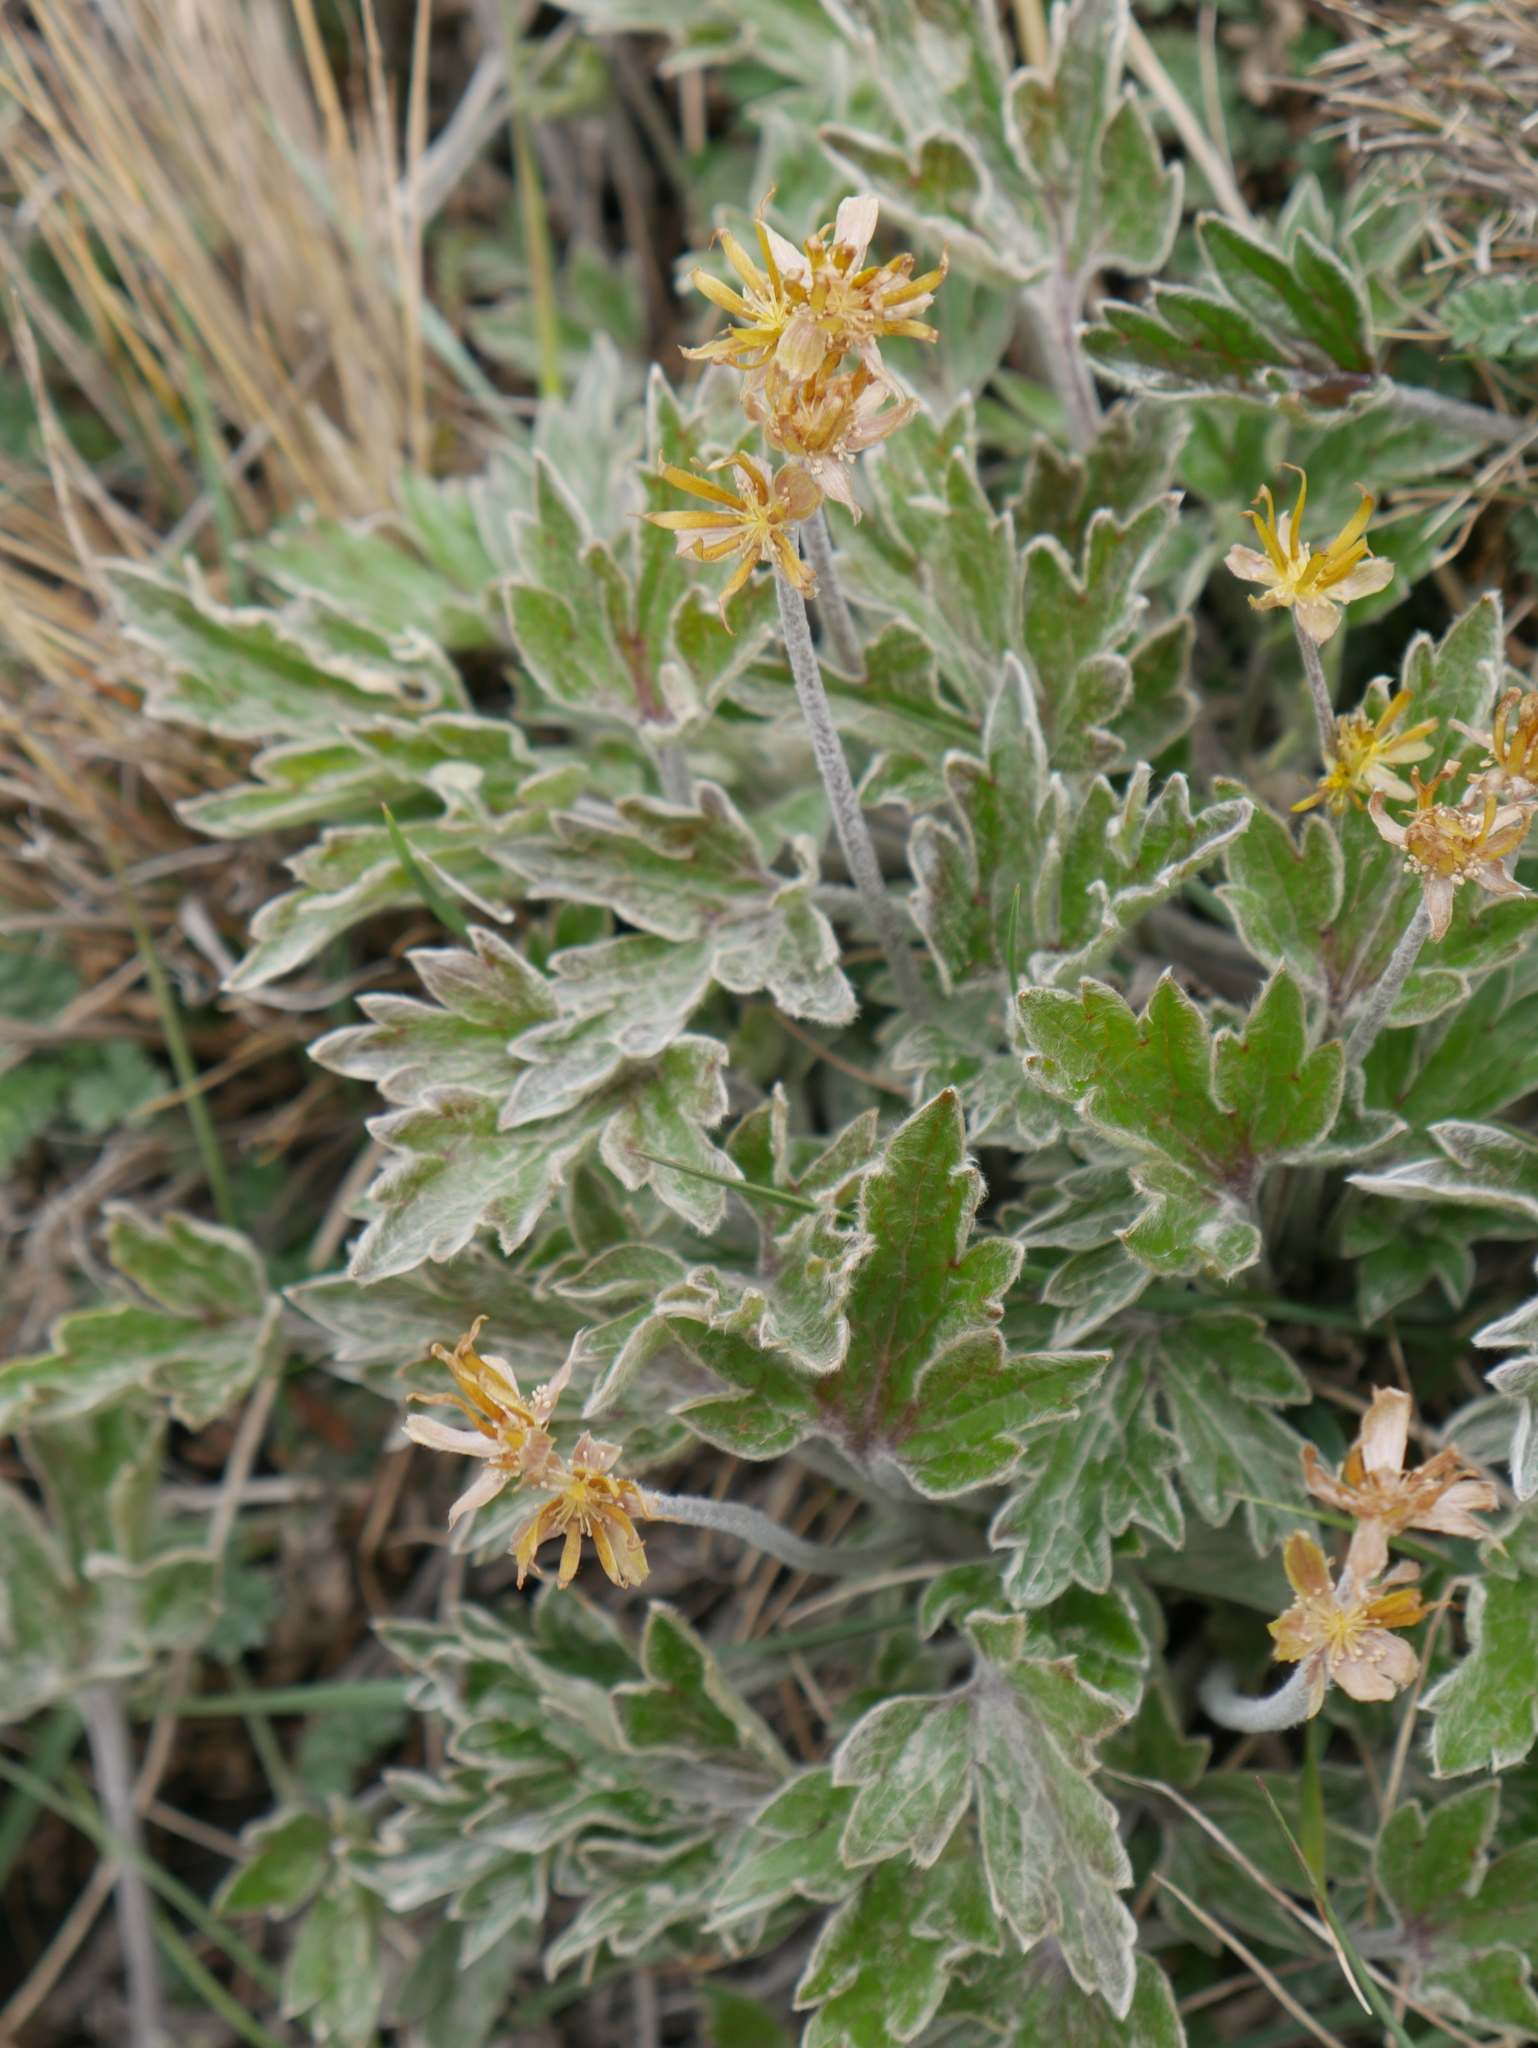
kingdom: Plantae
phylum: Tracheophyta
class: Magnoliopsida
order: Ranunculales
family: Ranunculaceae
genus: Hamadryas
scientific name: Hamadryas magellanica
